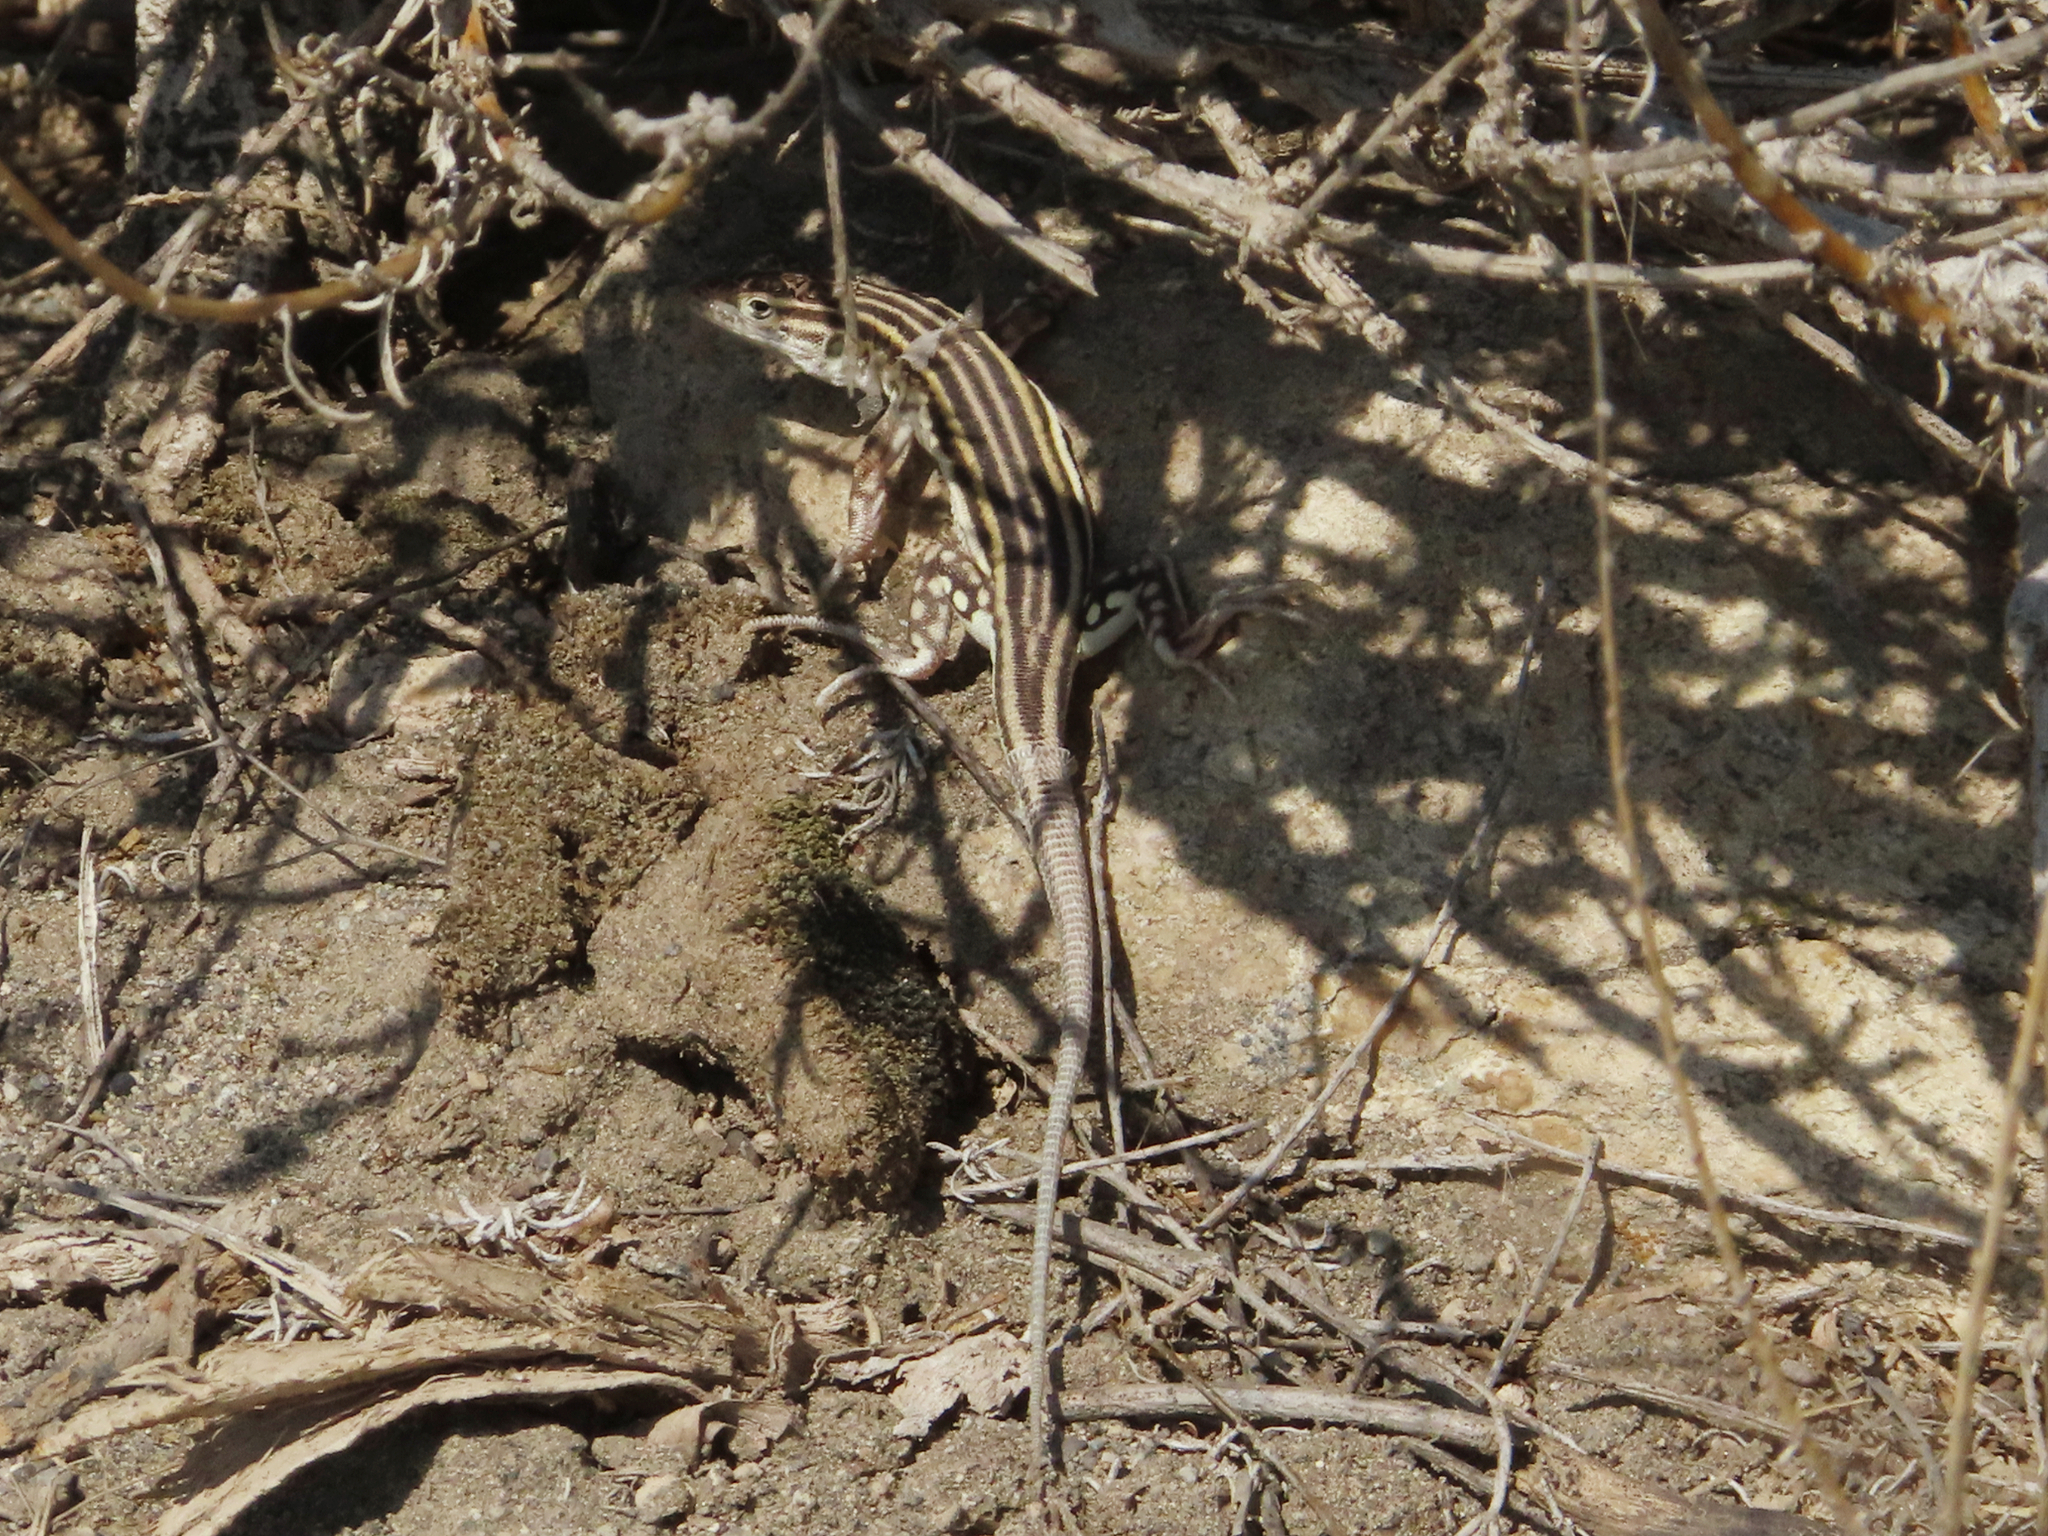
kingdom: Animalia
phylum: Chordata
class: Squamata
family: Lacertidae
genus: Eremias
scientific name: Eremias pleskei
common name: Pleske's racerunner
